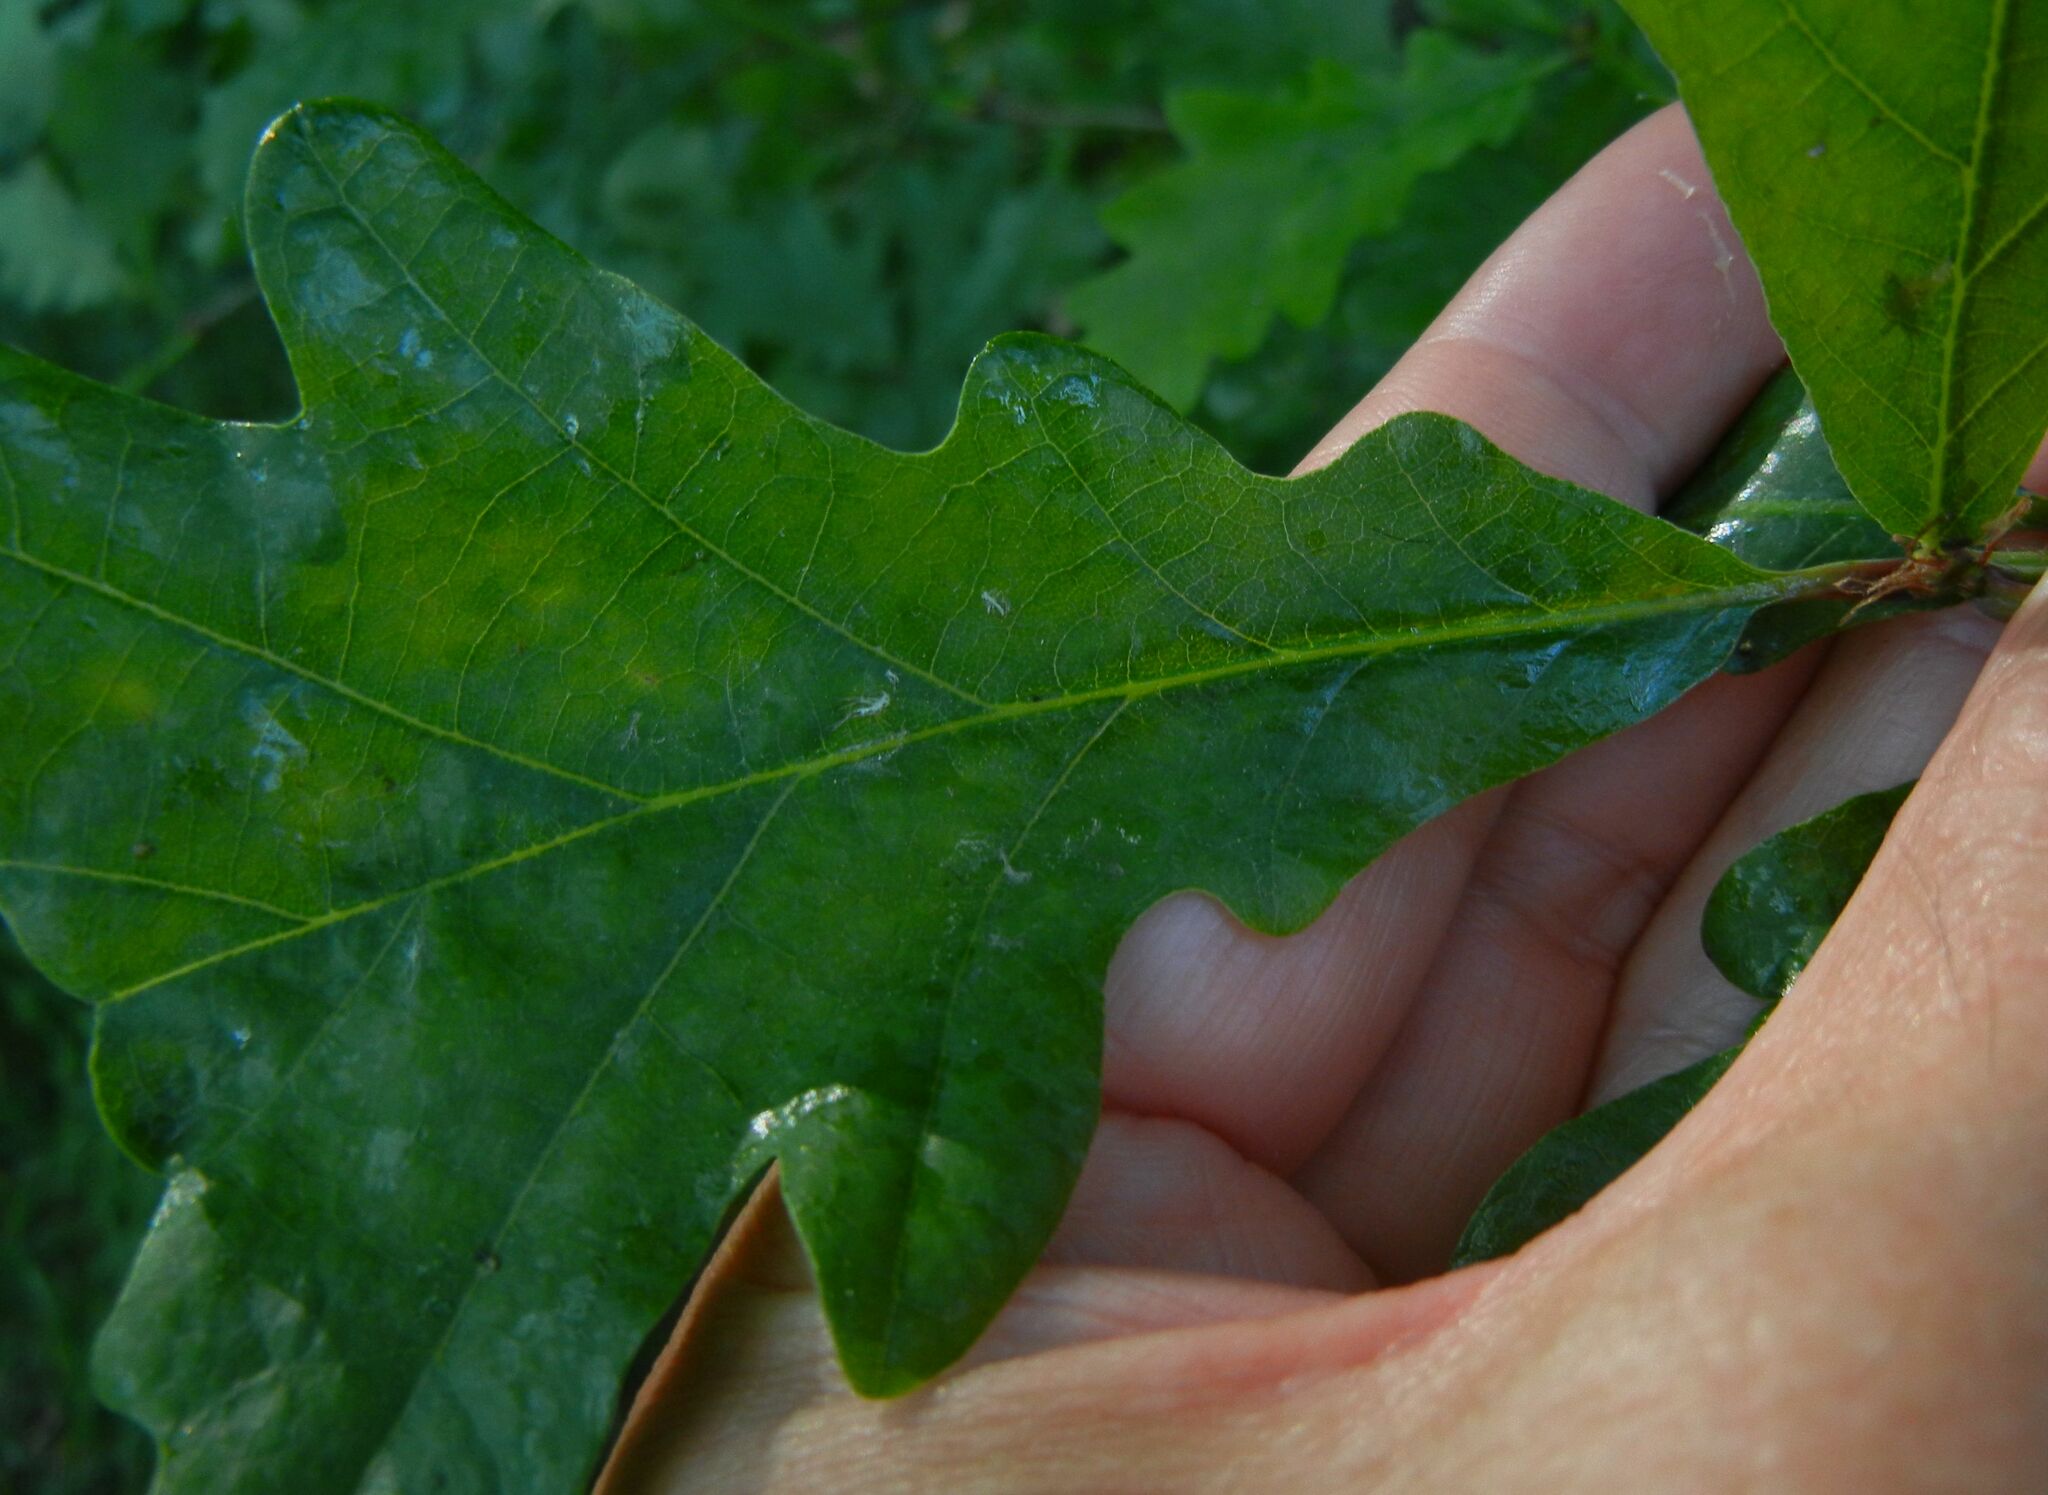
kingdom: Plantae
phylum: Tracheophyta
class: Magnoliopsida
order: Fagales
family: Fagaceae
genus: Quercus
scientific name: Quercus petraea
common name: Sessile oak
